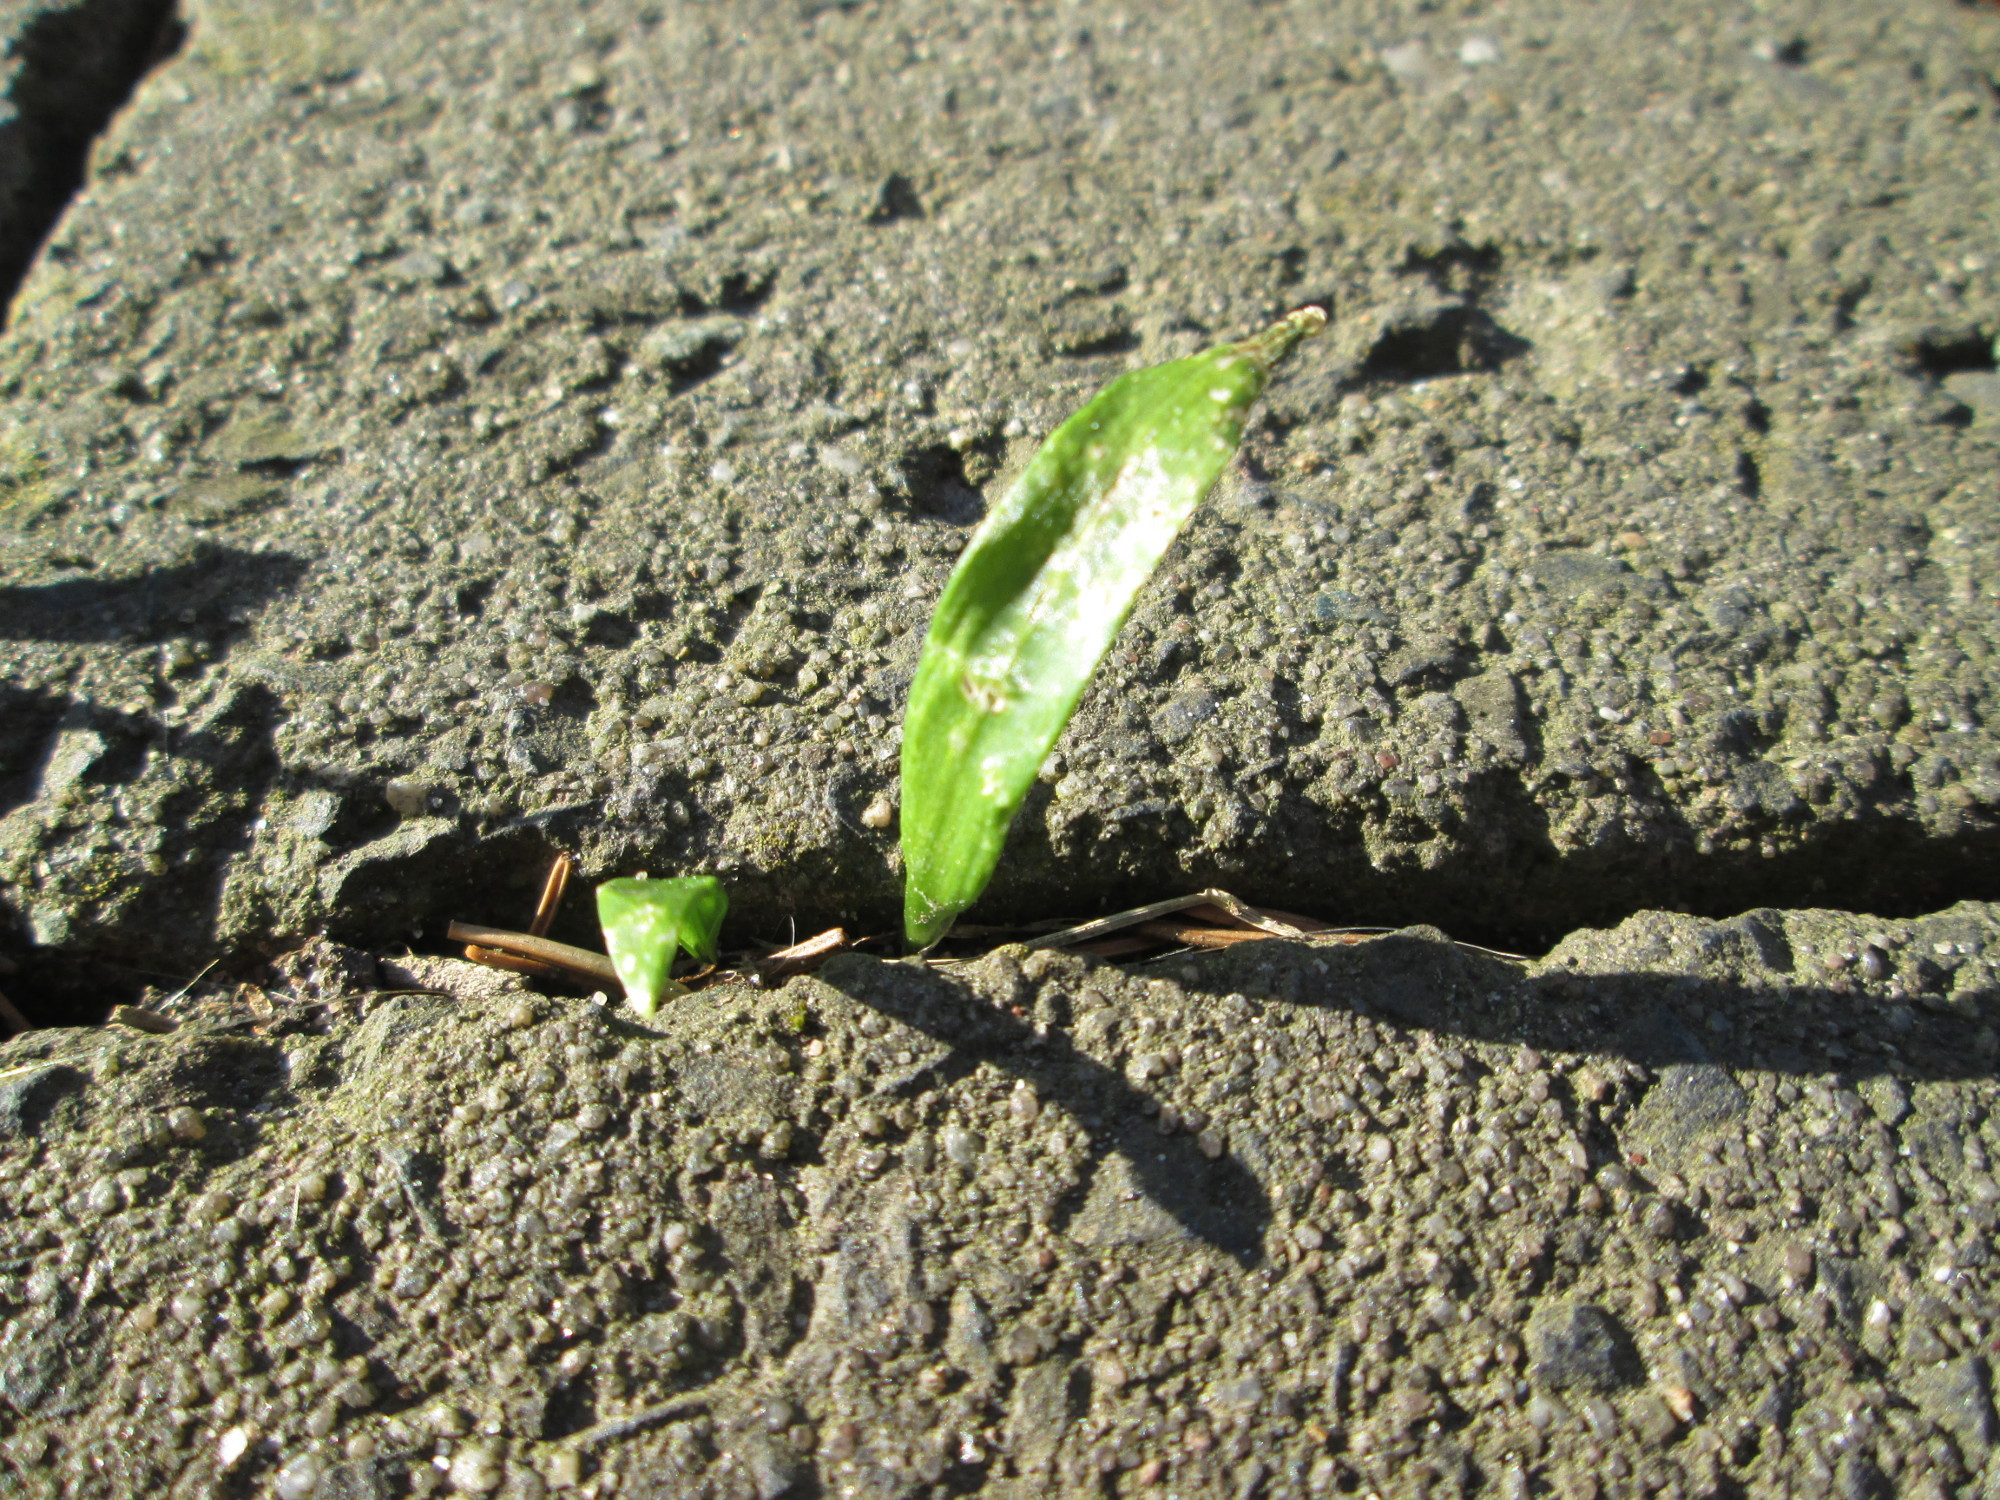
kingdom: Plantae
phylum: Tracheophyta
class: Liliopsida
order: Asparagales
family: Amaryllidaceae
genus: Allium
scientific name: Allium ursinum
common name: Ramsons
